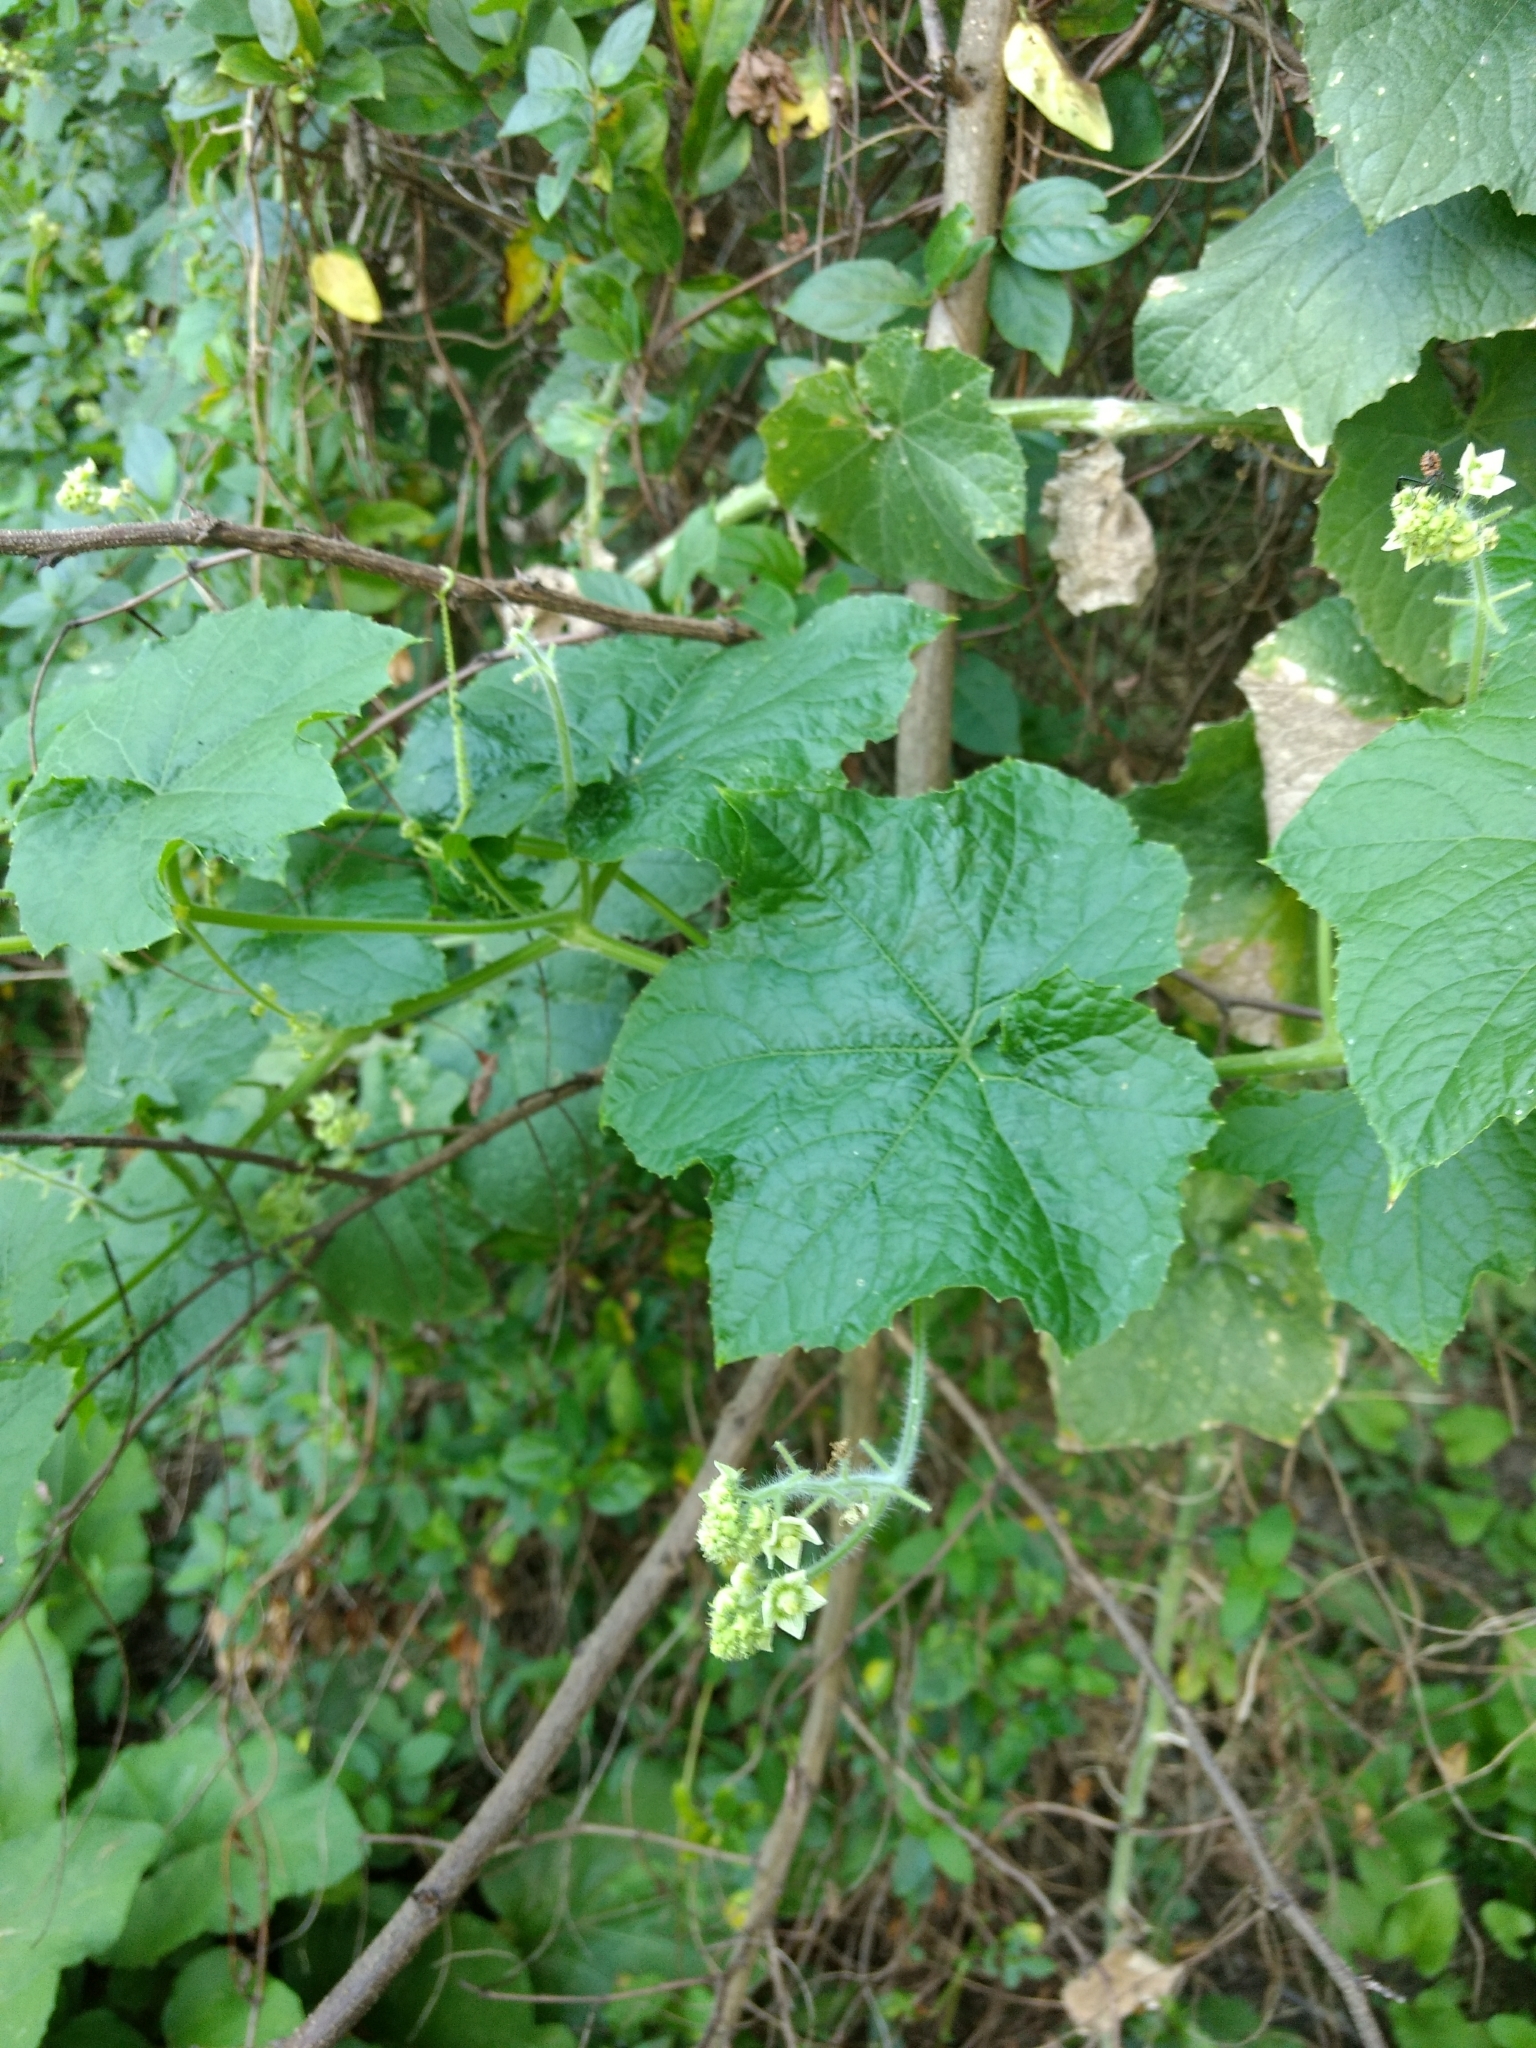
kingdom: Plantae
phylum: Tracheophyta
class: Magnoliopsida
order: Cucurbitales
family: Cucurbitaceae
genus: Sicyos
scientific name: Sicyos angulatus
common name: Angled burr cucumber
